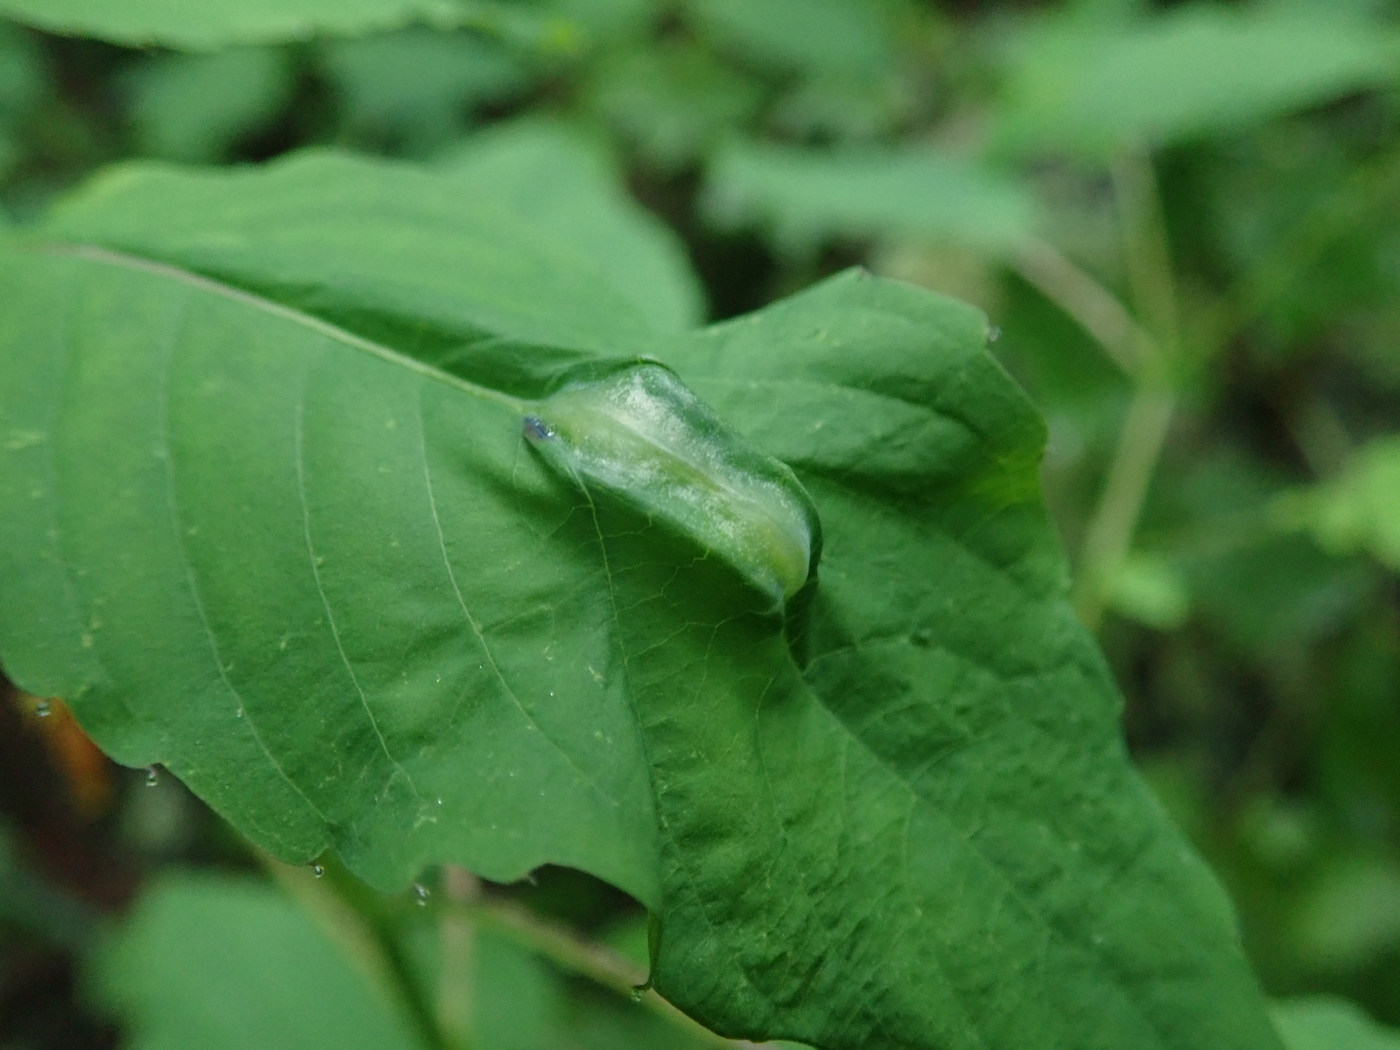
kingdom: Animalia
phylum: Arthropoda
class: Insecta
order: Diptera
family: Cecidomyiidae
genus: Neolasioptera
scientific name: Neolasioptera impatientifolia
